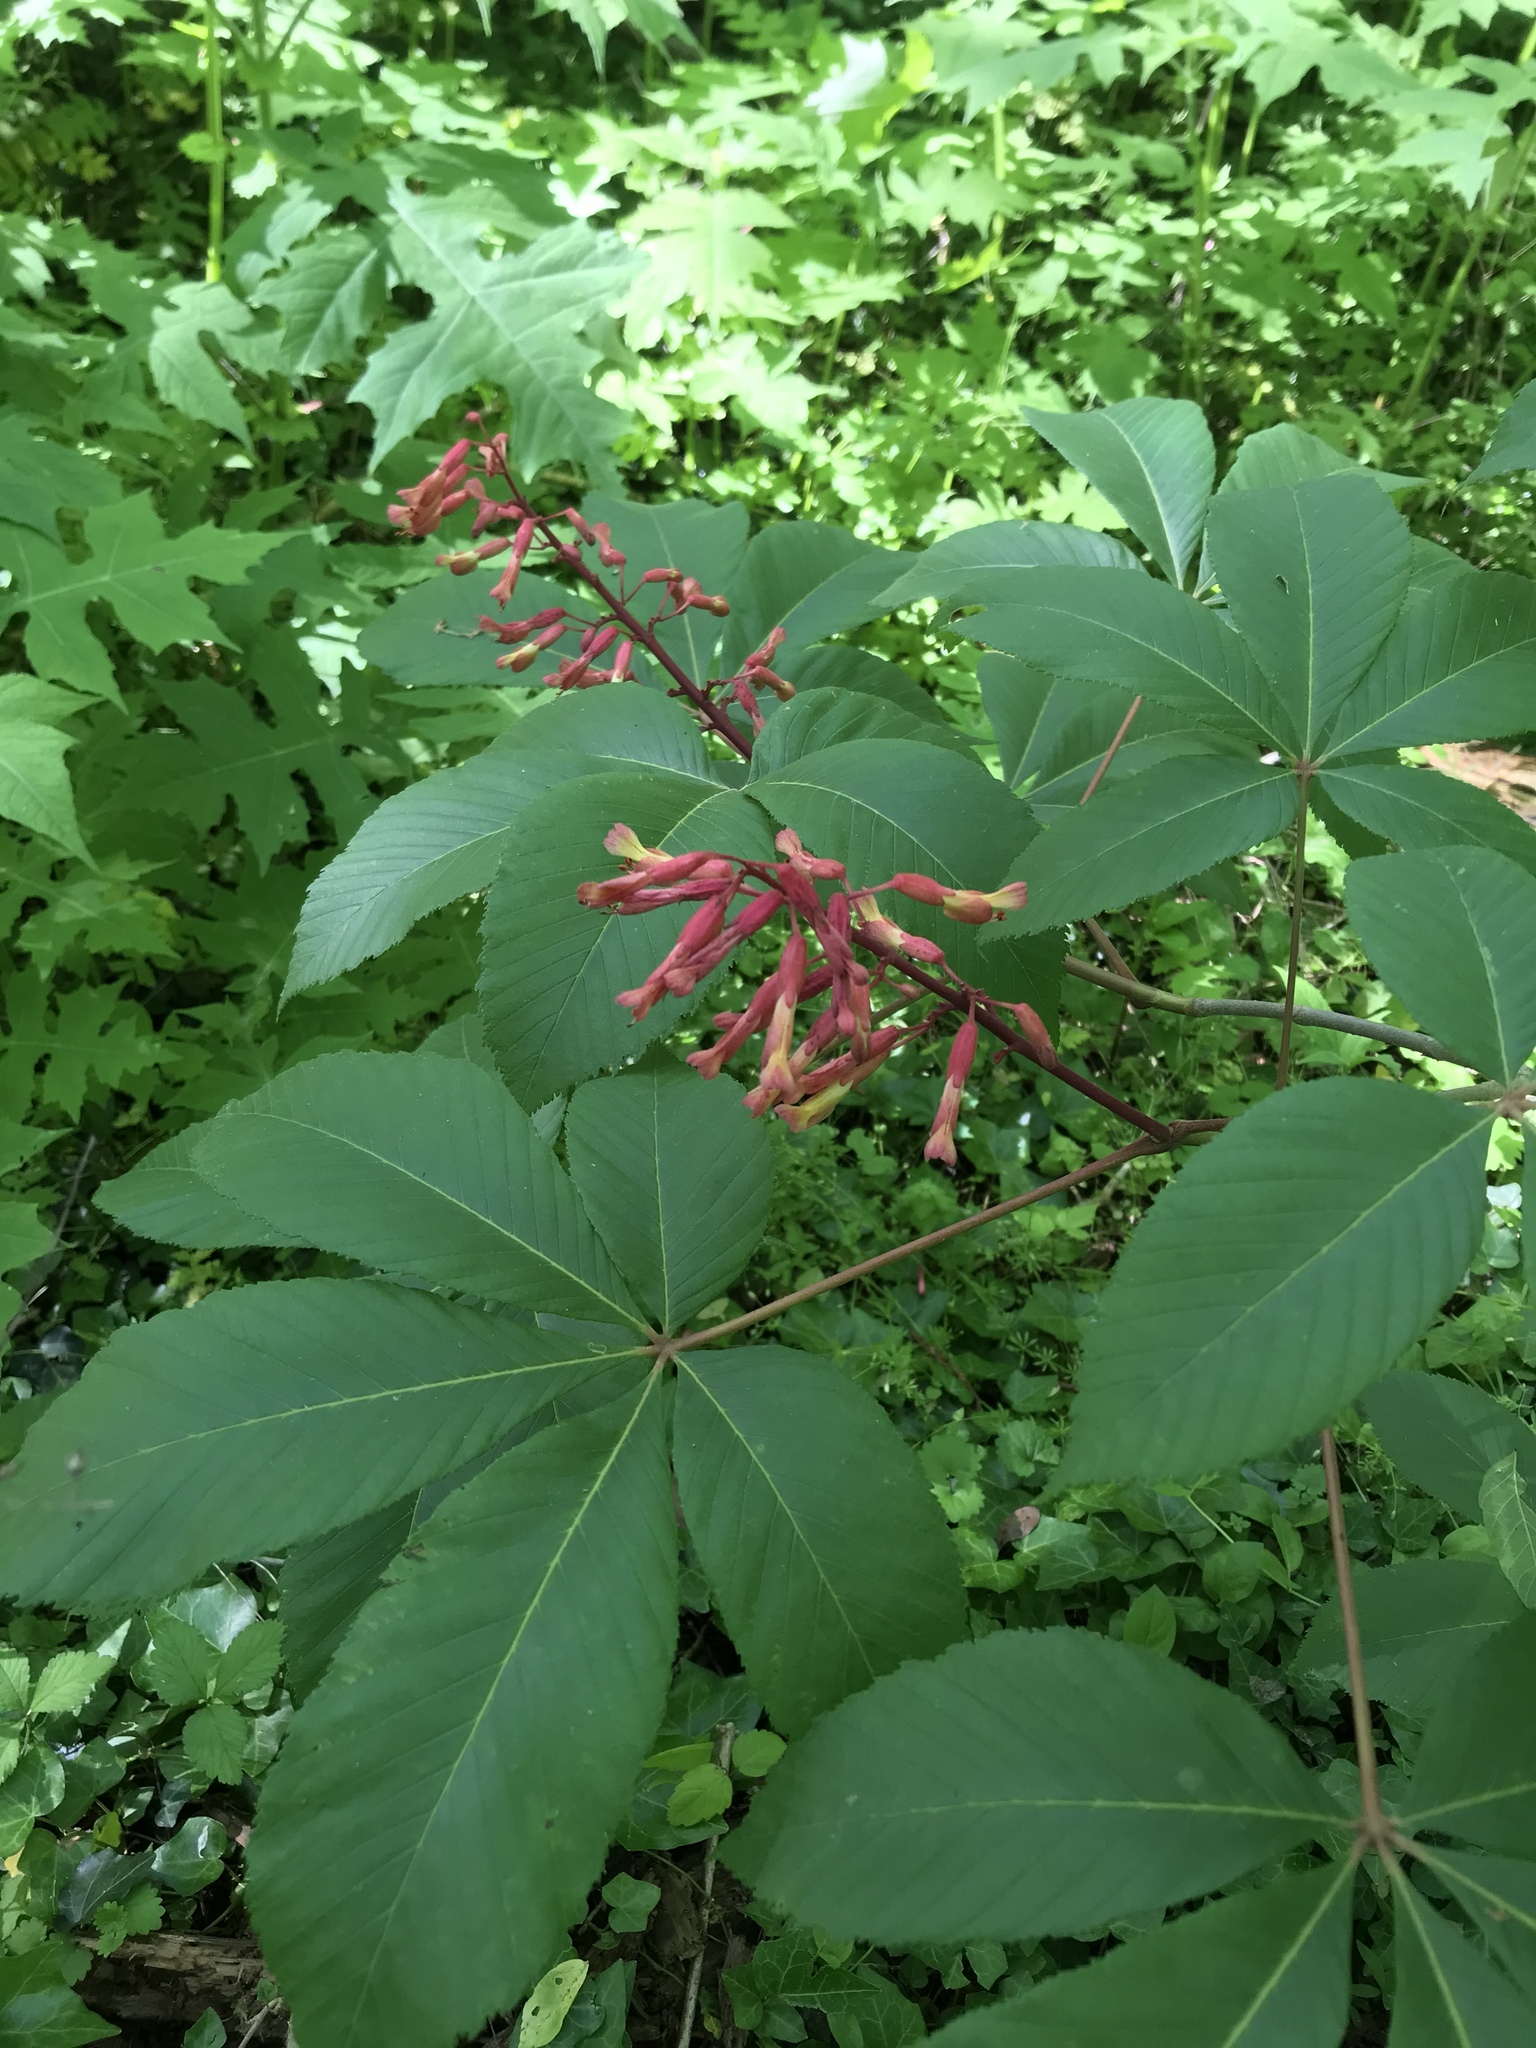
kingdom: Plantae
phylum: Tracheophyta
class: Magnoliopsida
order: Sapindales
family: Sapindaceae
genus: Aesculus
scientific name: Aesculus pavia
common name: Red buckeye
